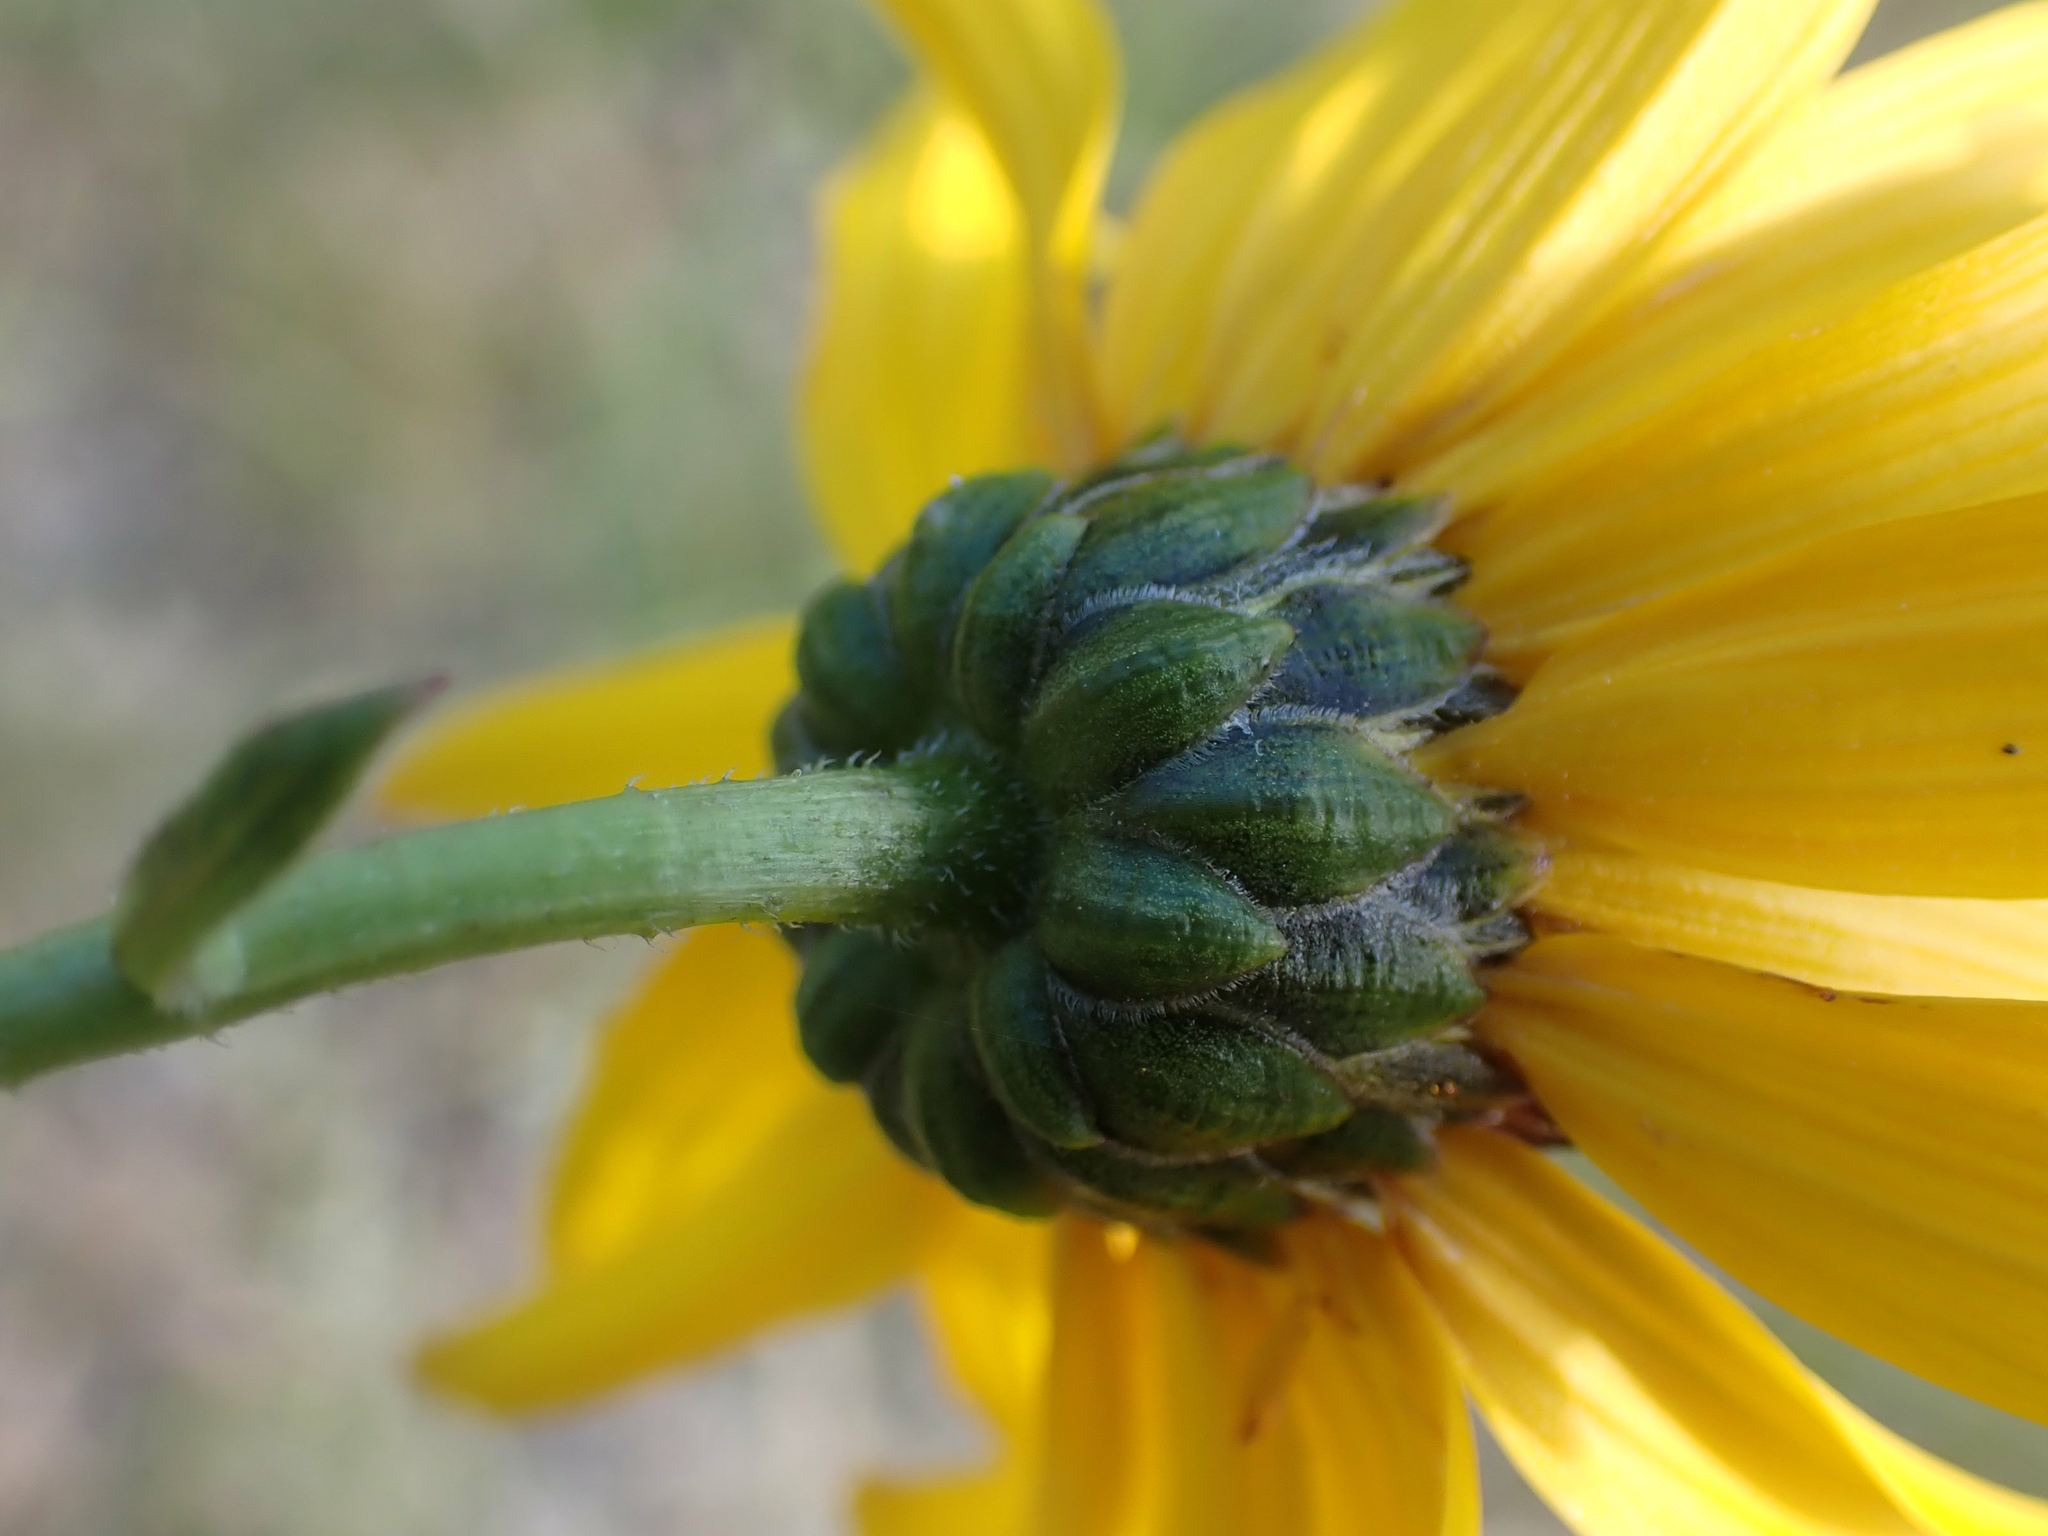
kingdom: Plantae
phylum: Tracheophyta
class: Magnoliopsida
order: Asterales
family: Asteraceae
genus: Helianthus
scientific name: Helianthus pauciflorus
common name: Stiff sunflower
